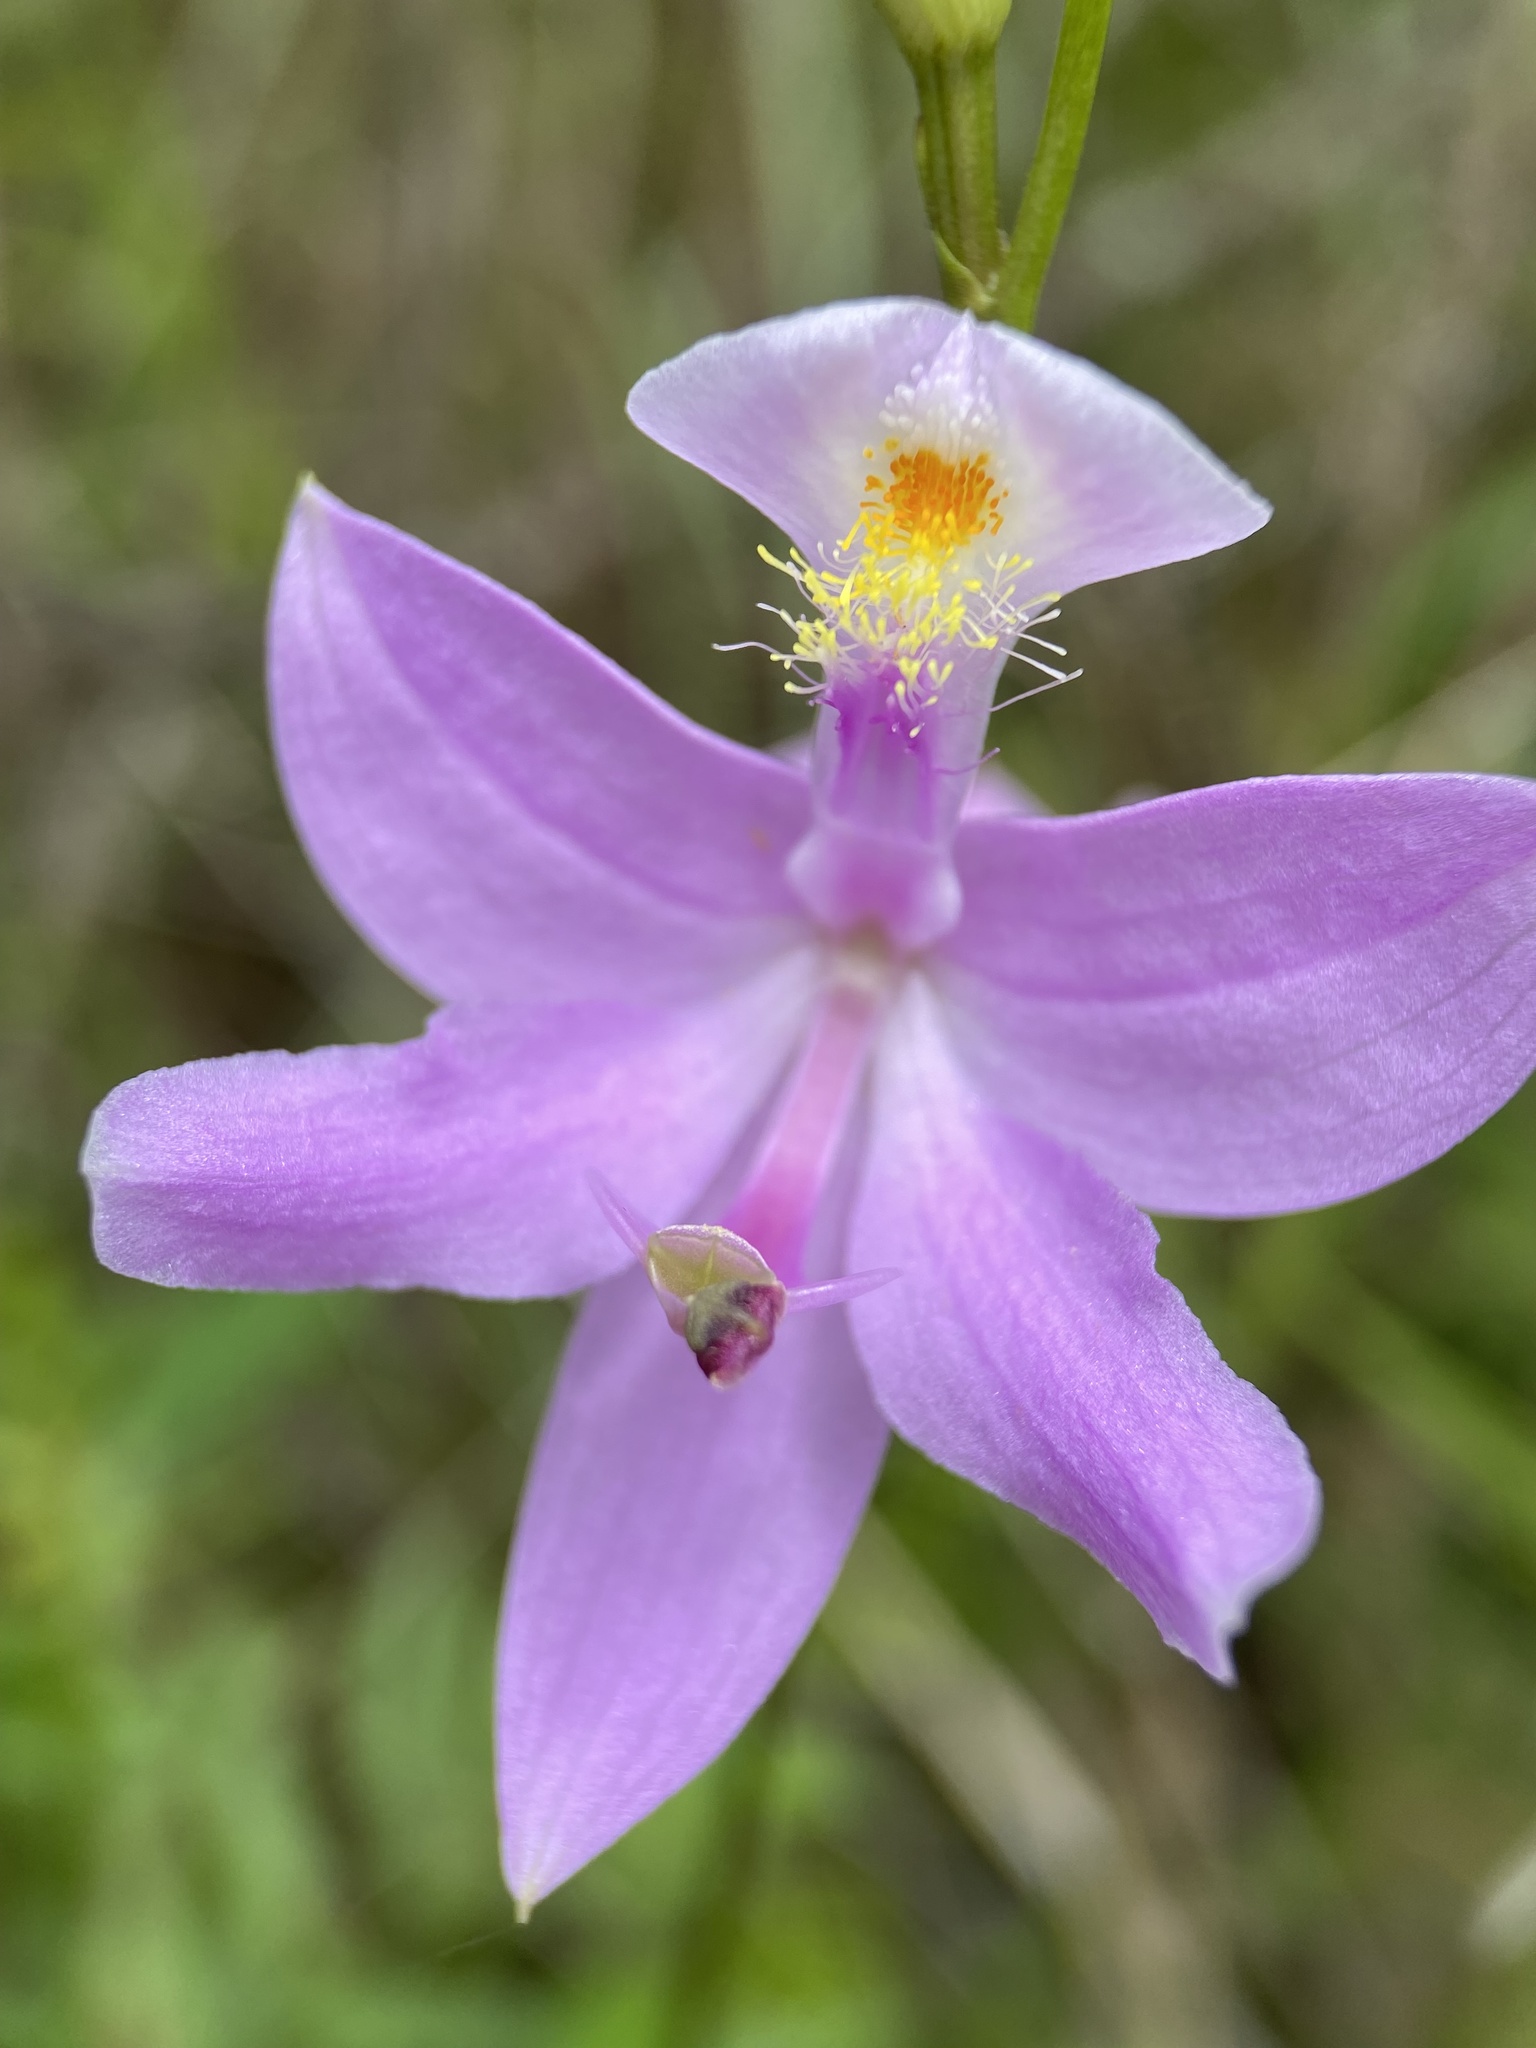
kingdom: Plantae
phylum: Tracheophyta
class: Liliopsida
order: Asparagales
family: Orchidaceae
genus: Calopogon
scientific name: Calopogon tuberosus
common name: Grass-pink
